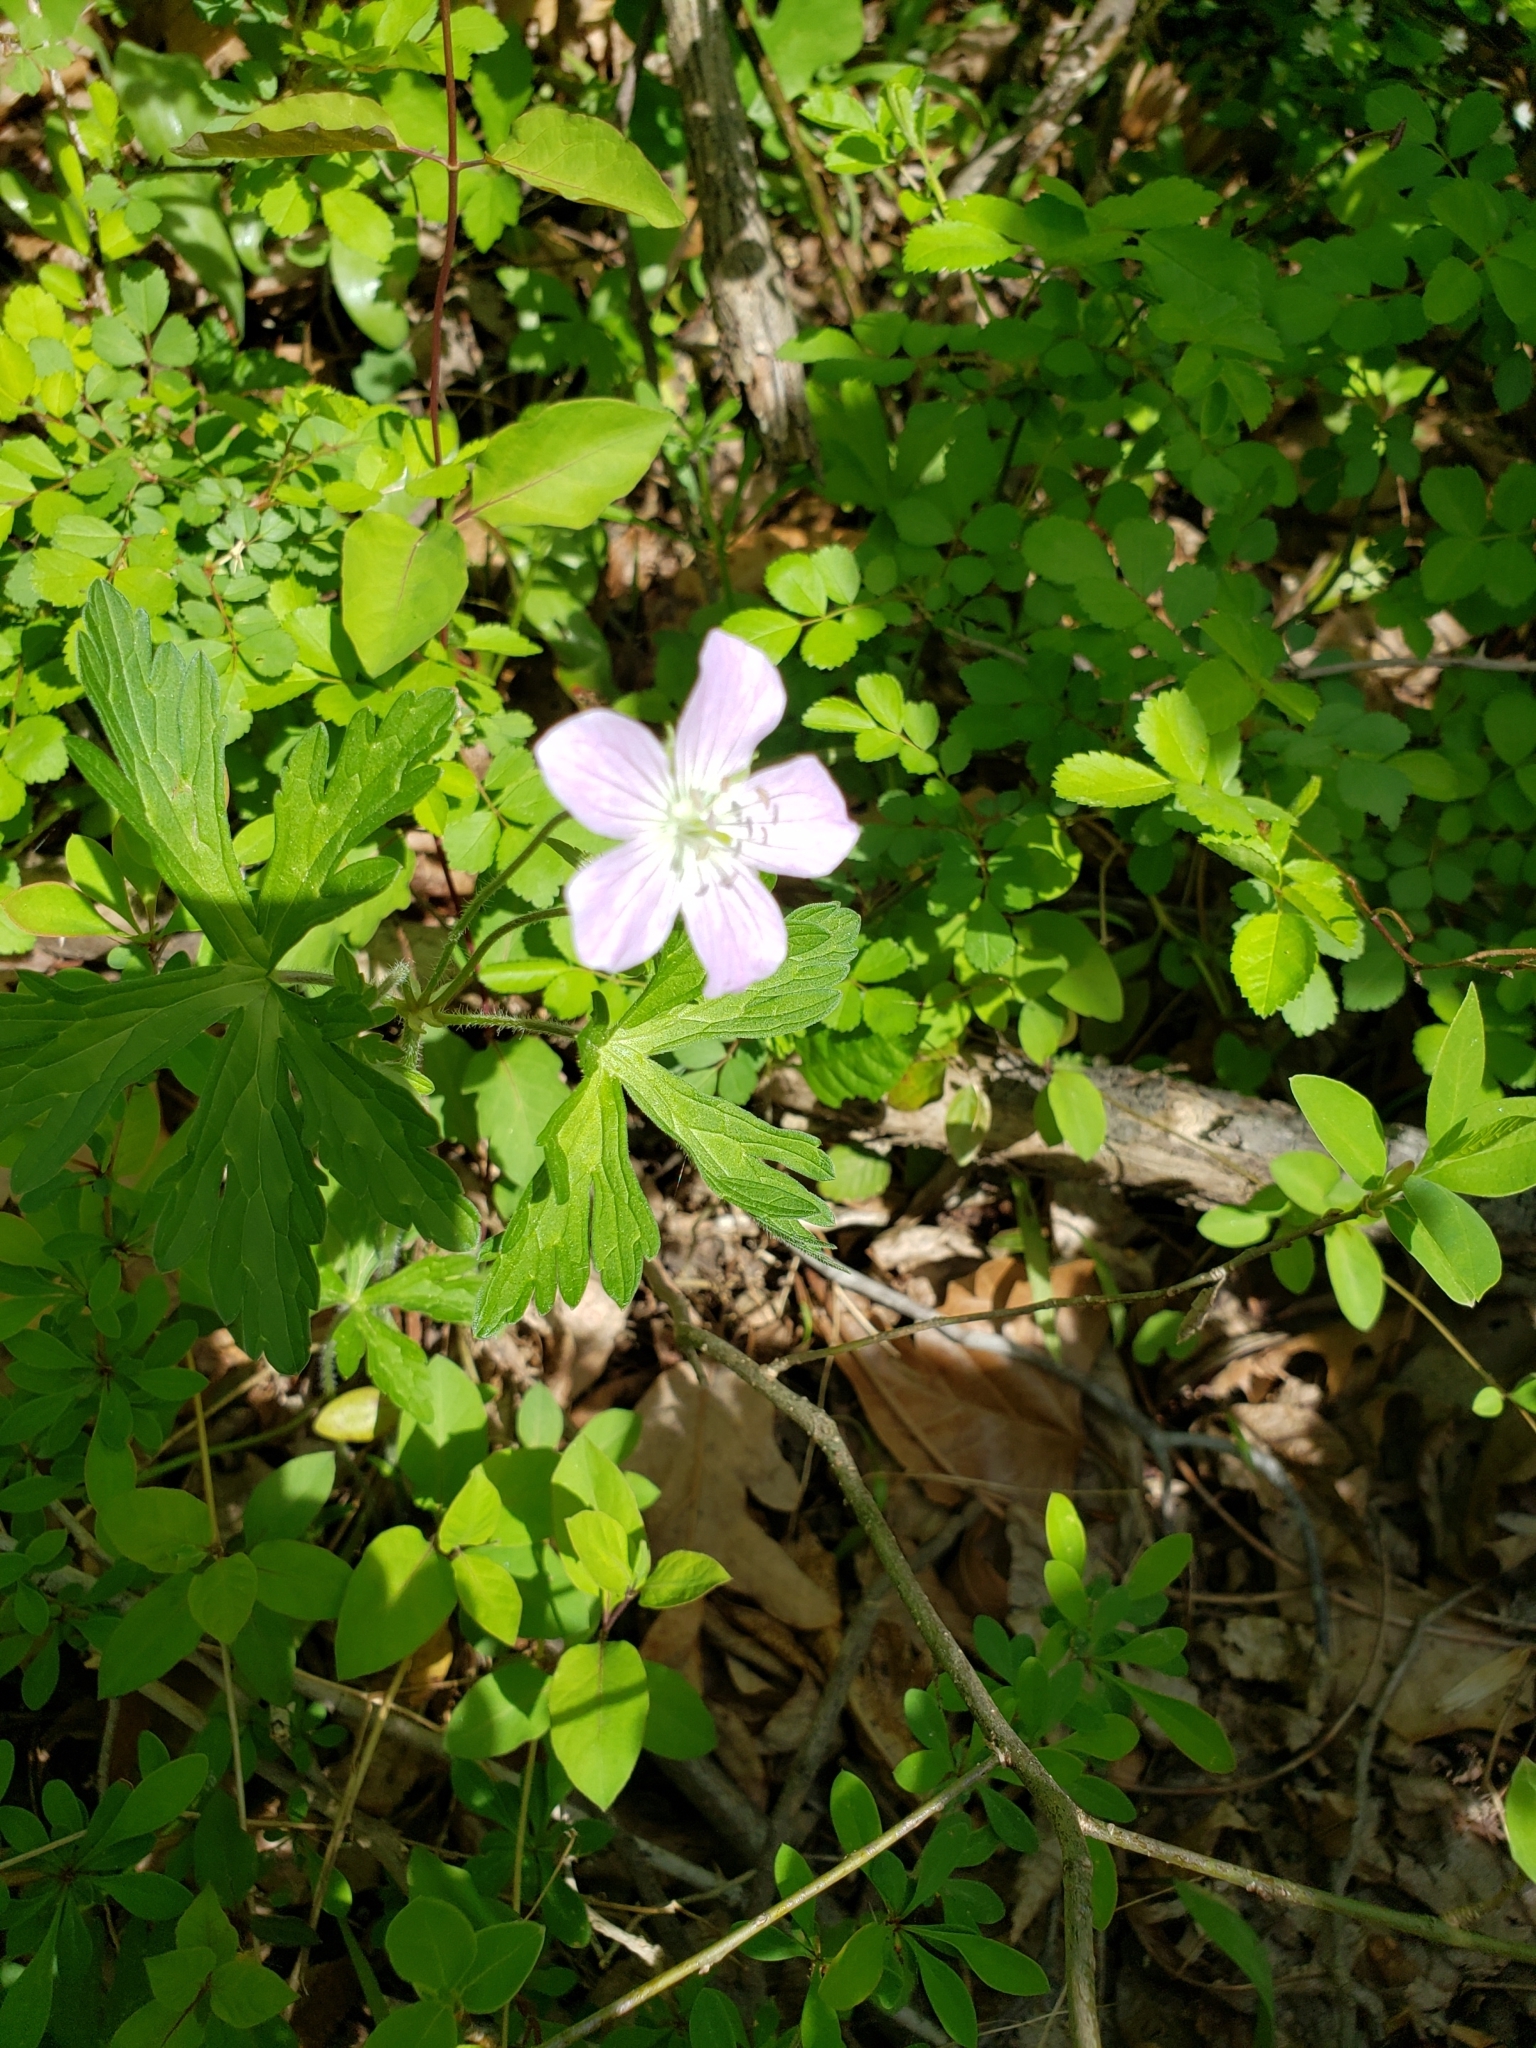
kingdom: Plantae
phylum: Tracheophyta
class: Magnoliopsida
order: Geraniales
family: Geraniaceae
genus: Geranium
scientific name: Geranium maculatum
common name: Spotted geranium
